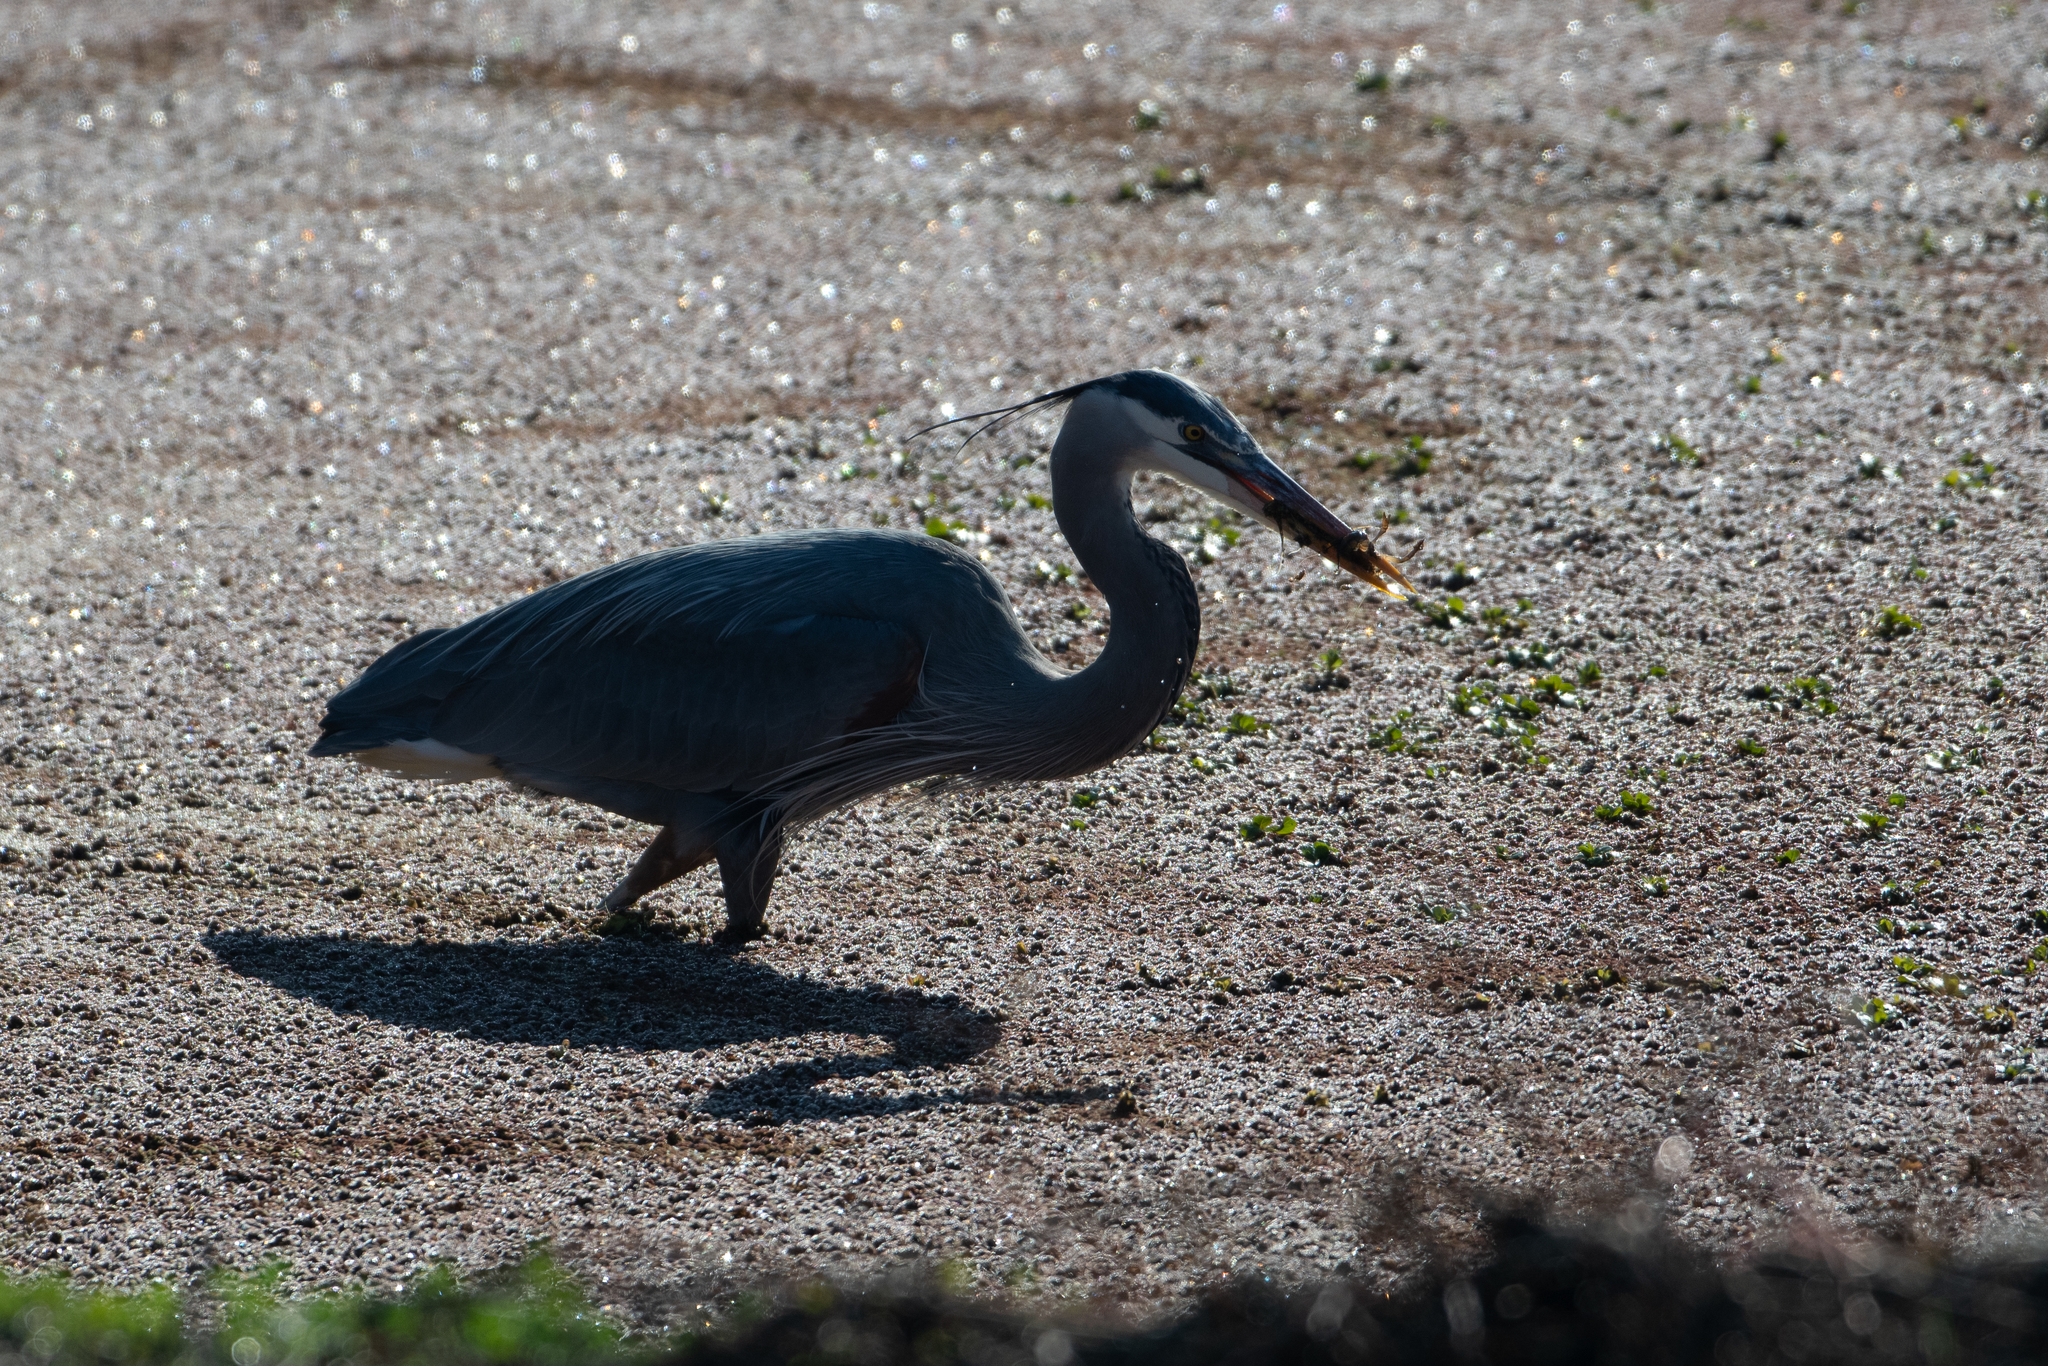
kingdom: Animalia
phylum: Chordata
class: Aves
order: Pelecaniformes
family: Ardeidae
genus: Ardea
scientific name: Ardea herodias
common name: Great blue heron
